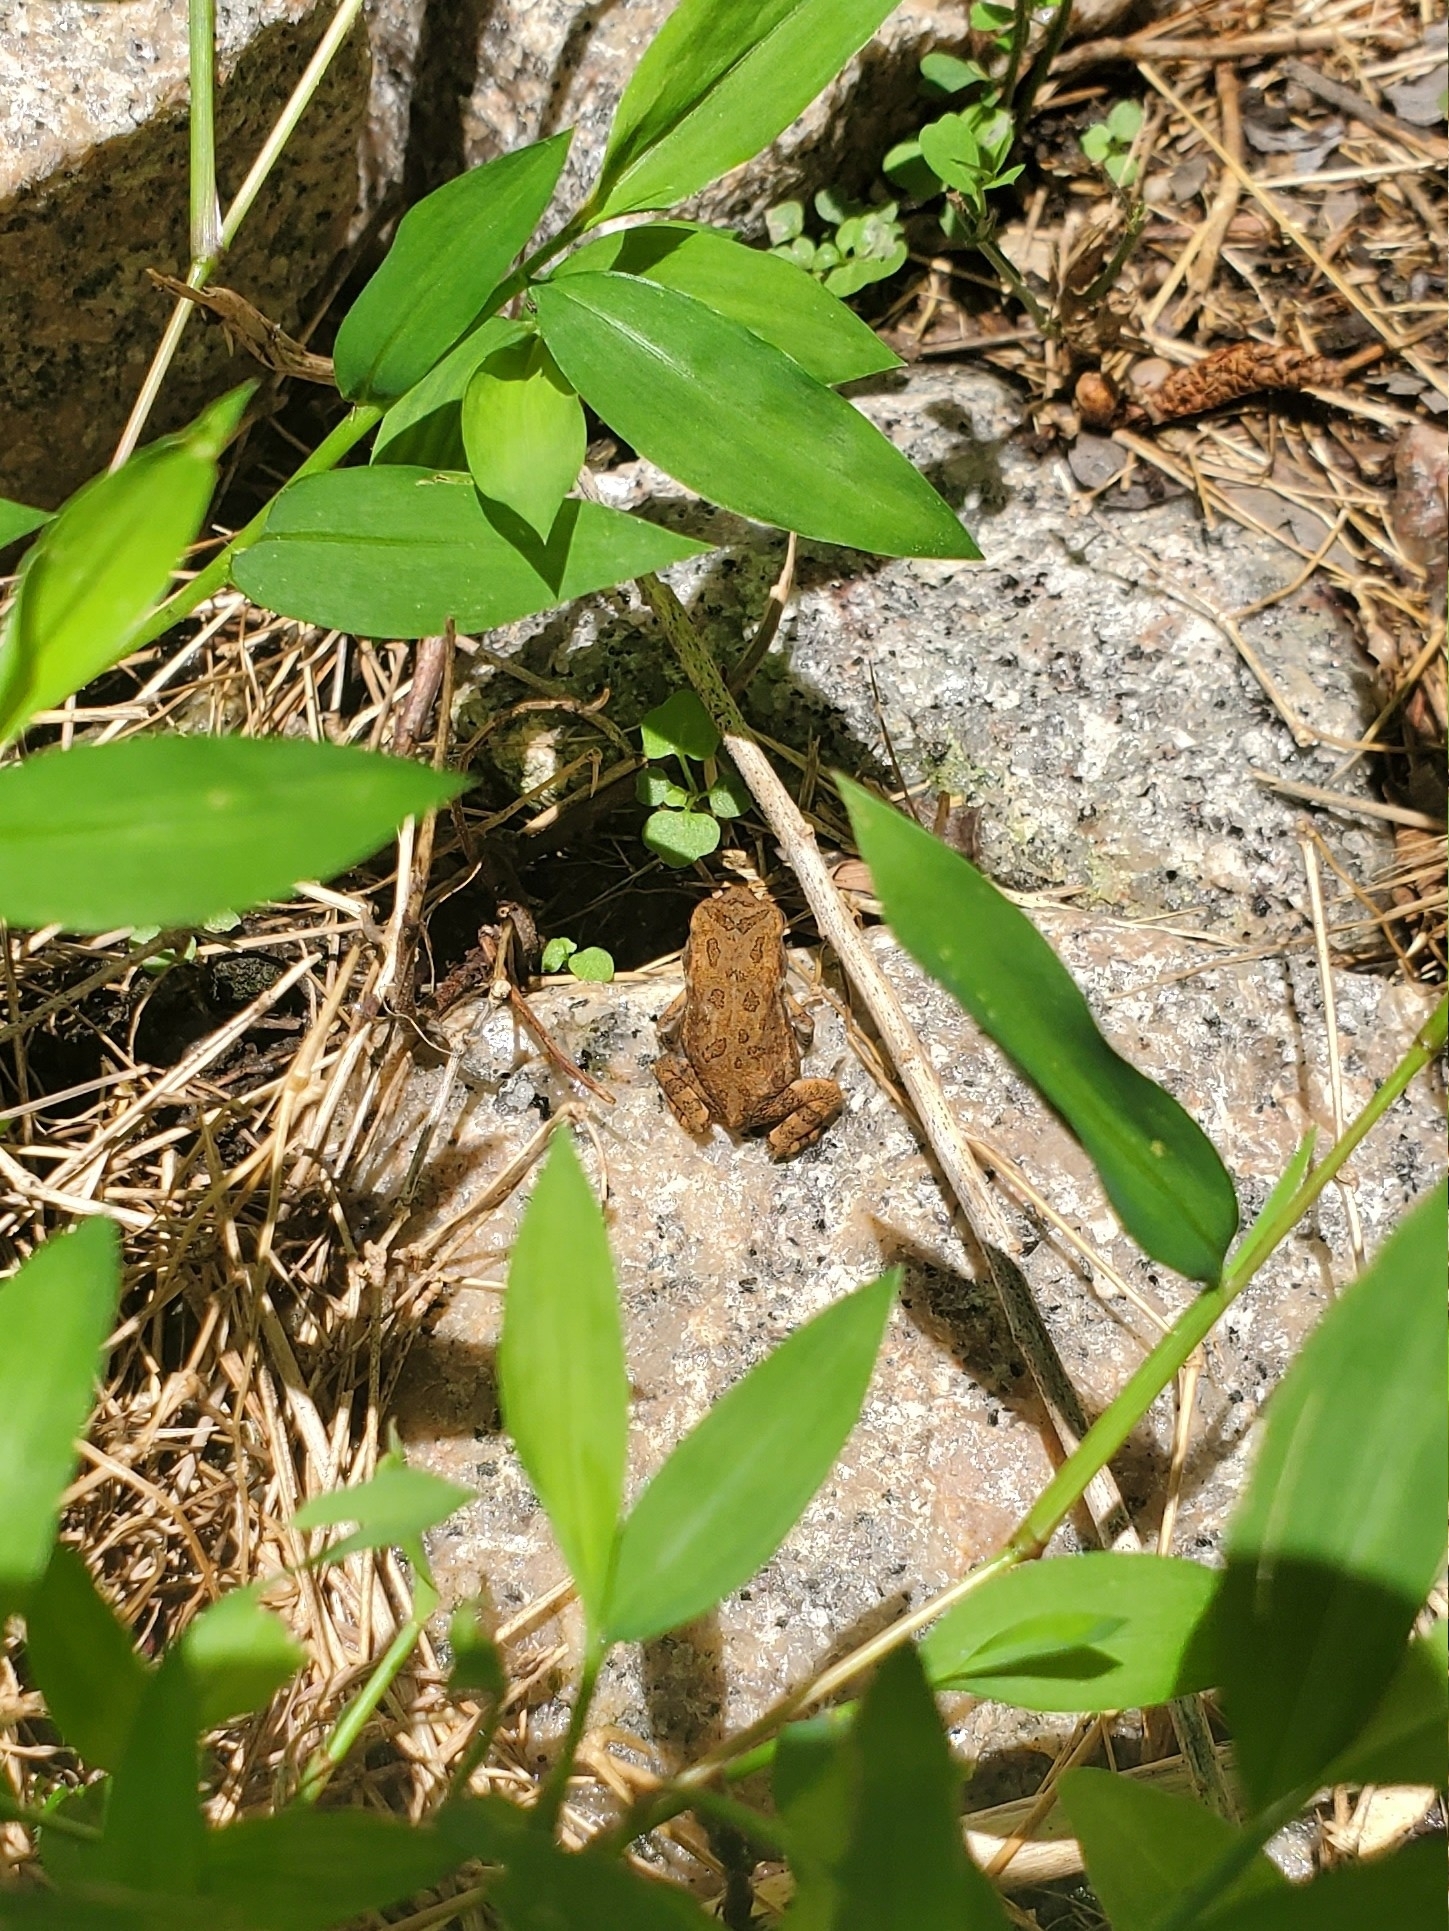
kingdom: Animalia
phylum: Chordata
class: Amphibia
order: Anura
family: Bufonidae
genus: Anaxyrus
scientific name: Anaxyrus fowleri
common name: Fowler's toad
